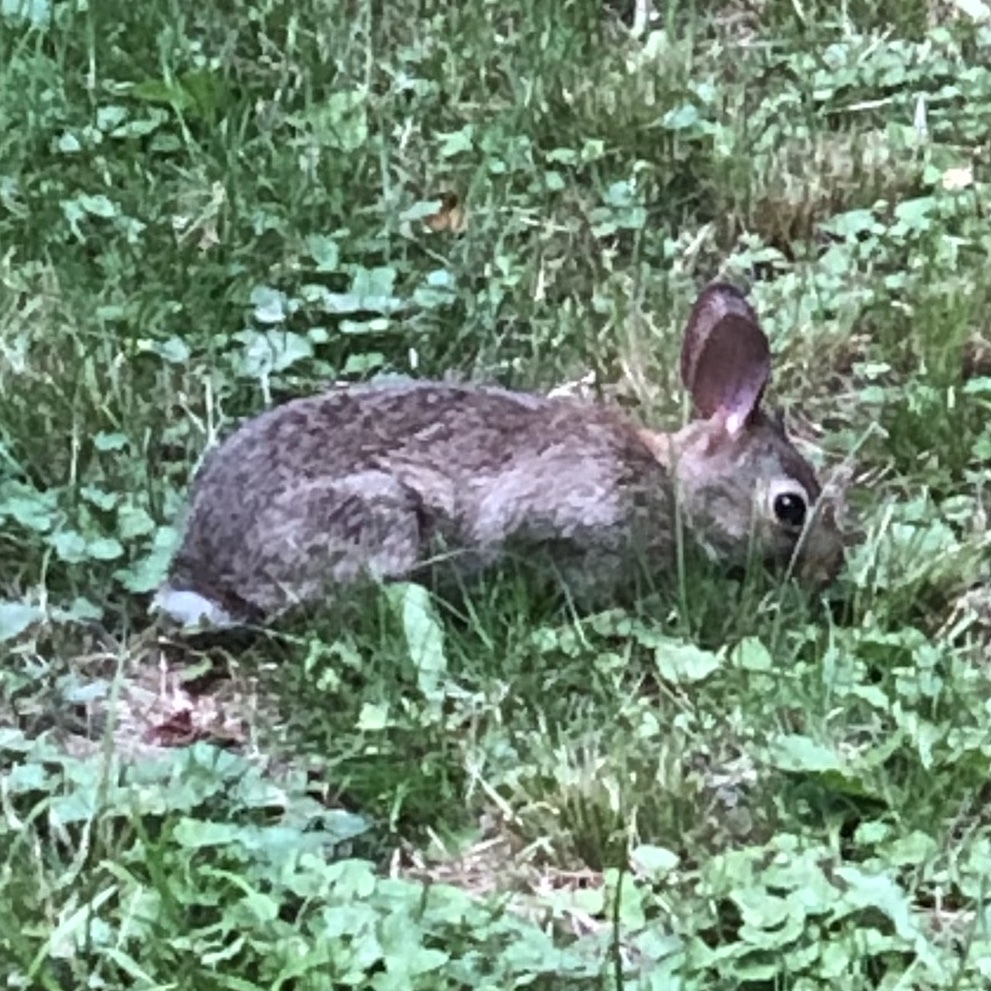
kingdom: Animalia
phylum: Chordata
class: Mammalia
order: Lagomorpha
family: Leporidae
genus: Sylvilagus
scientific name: Sylvilagus floridanus
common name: Eastern cottontail
